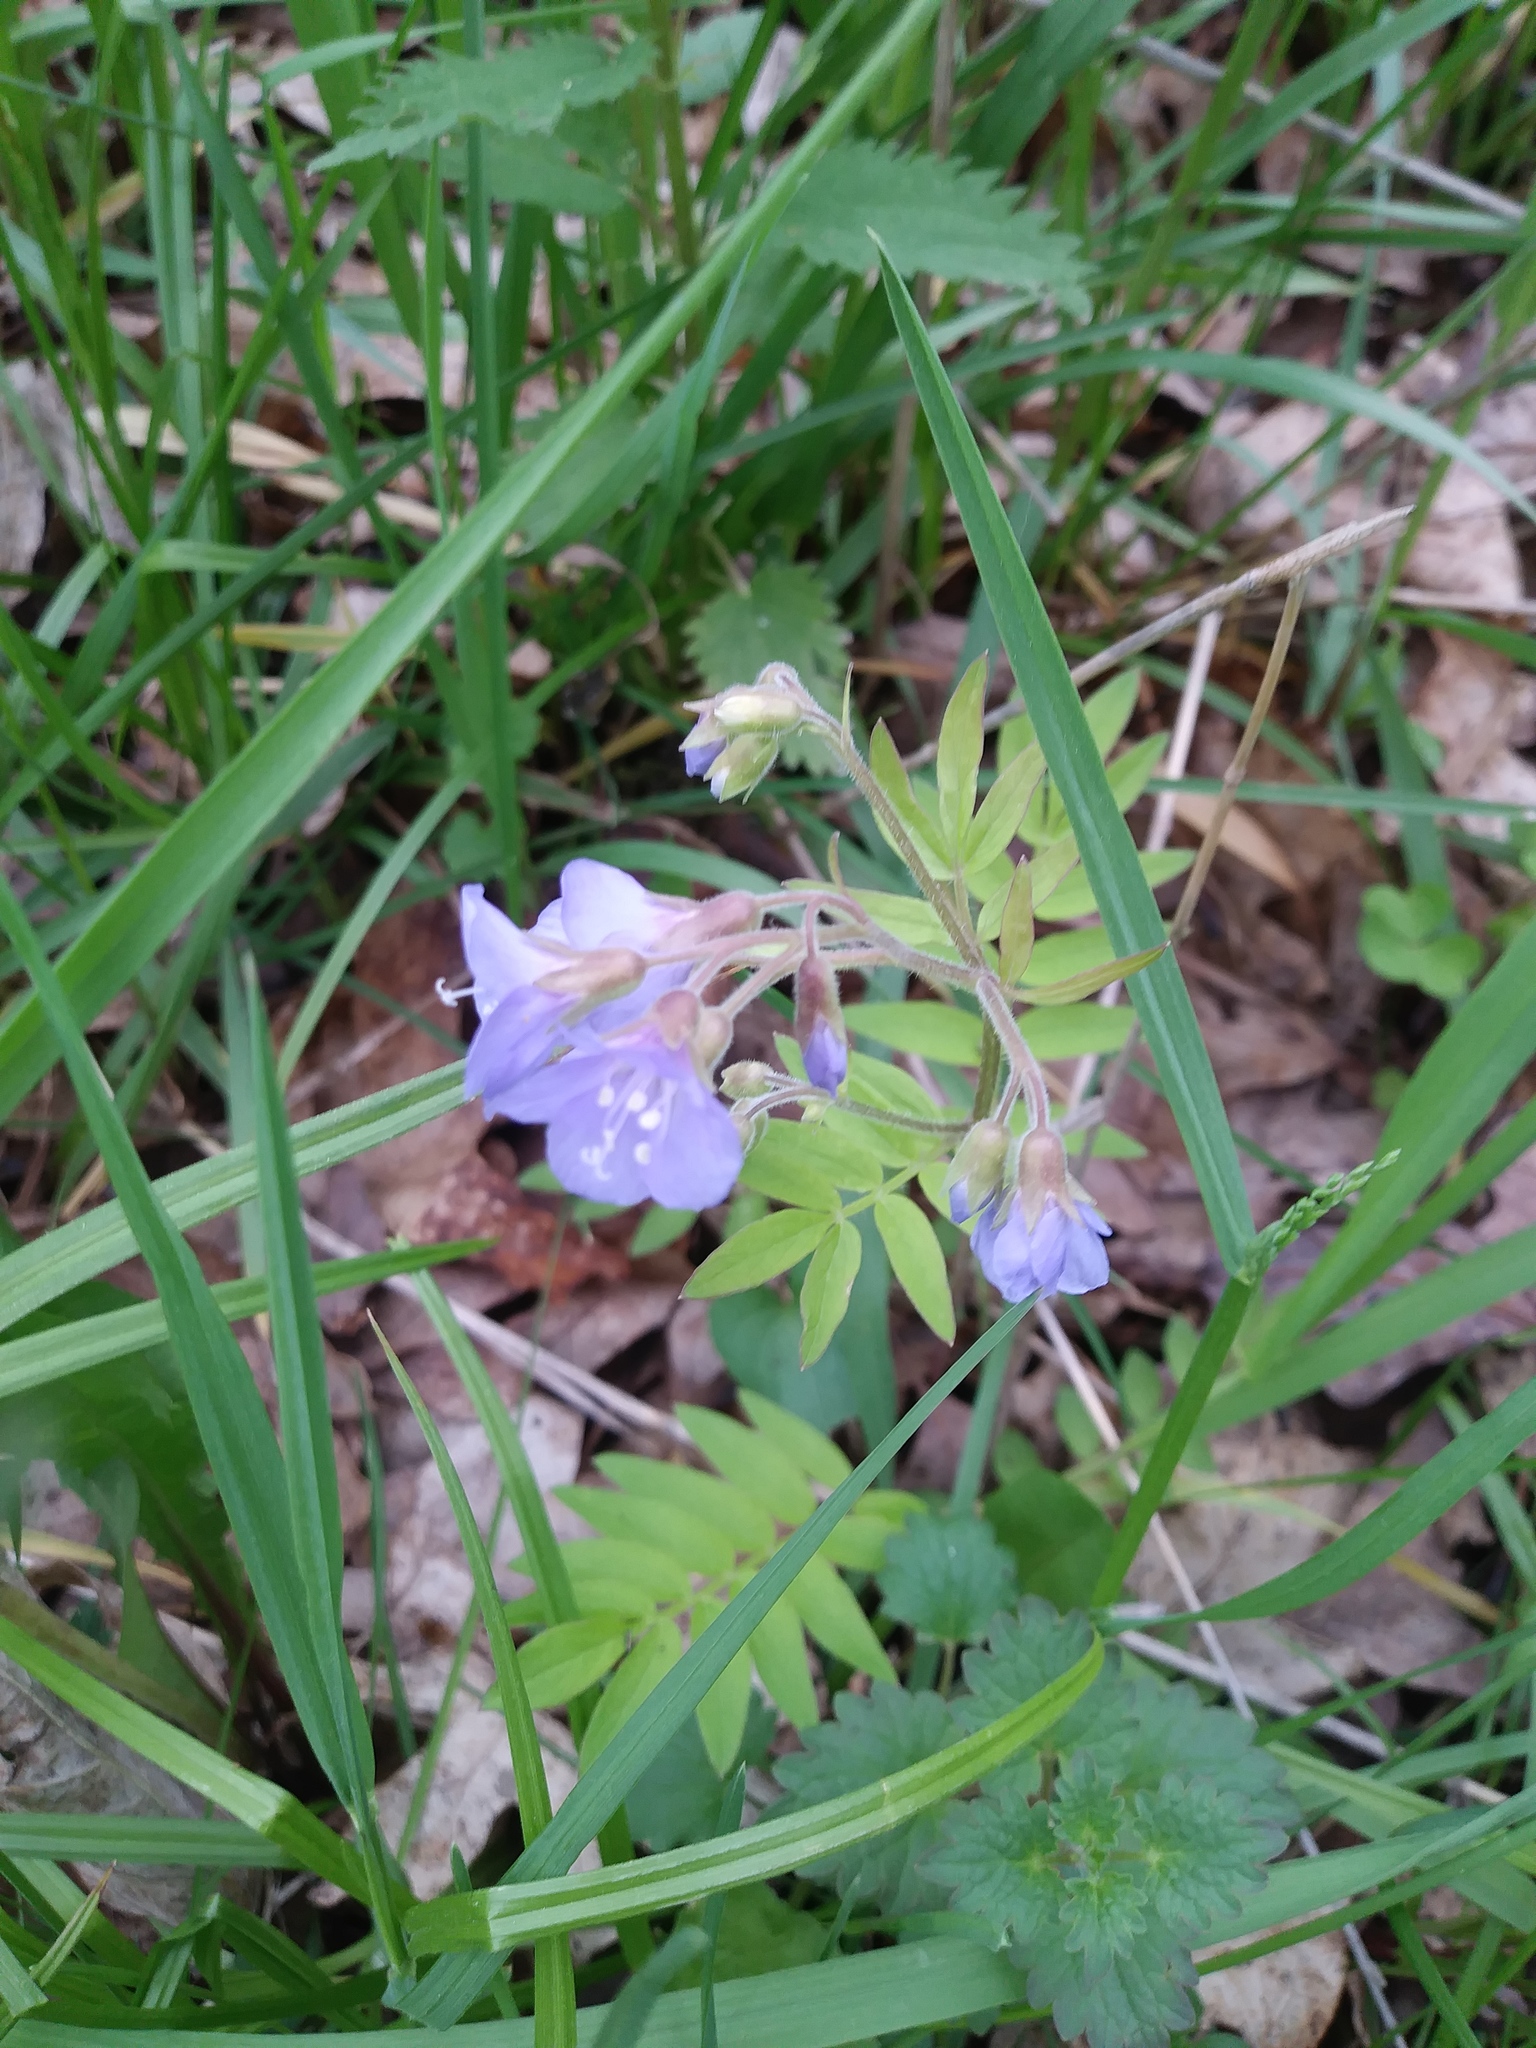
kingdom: Plantae
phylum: Tracheophyta
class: Magnoliopsida
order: Ericales
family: Polemoniaceae
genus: Polemonium
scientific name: Polemonium reptans
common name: Creeping jacob's-ladder
